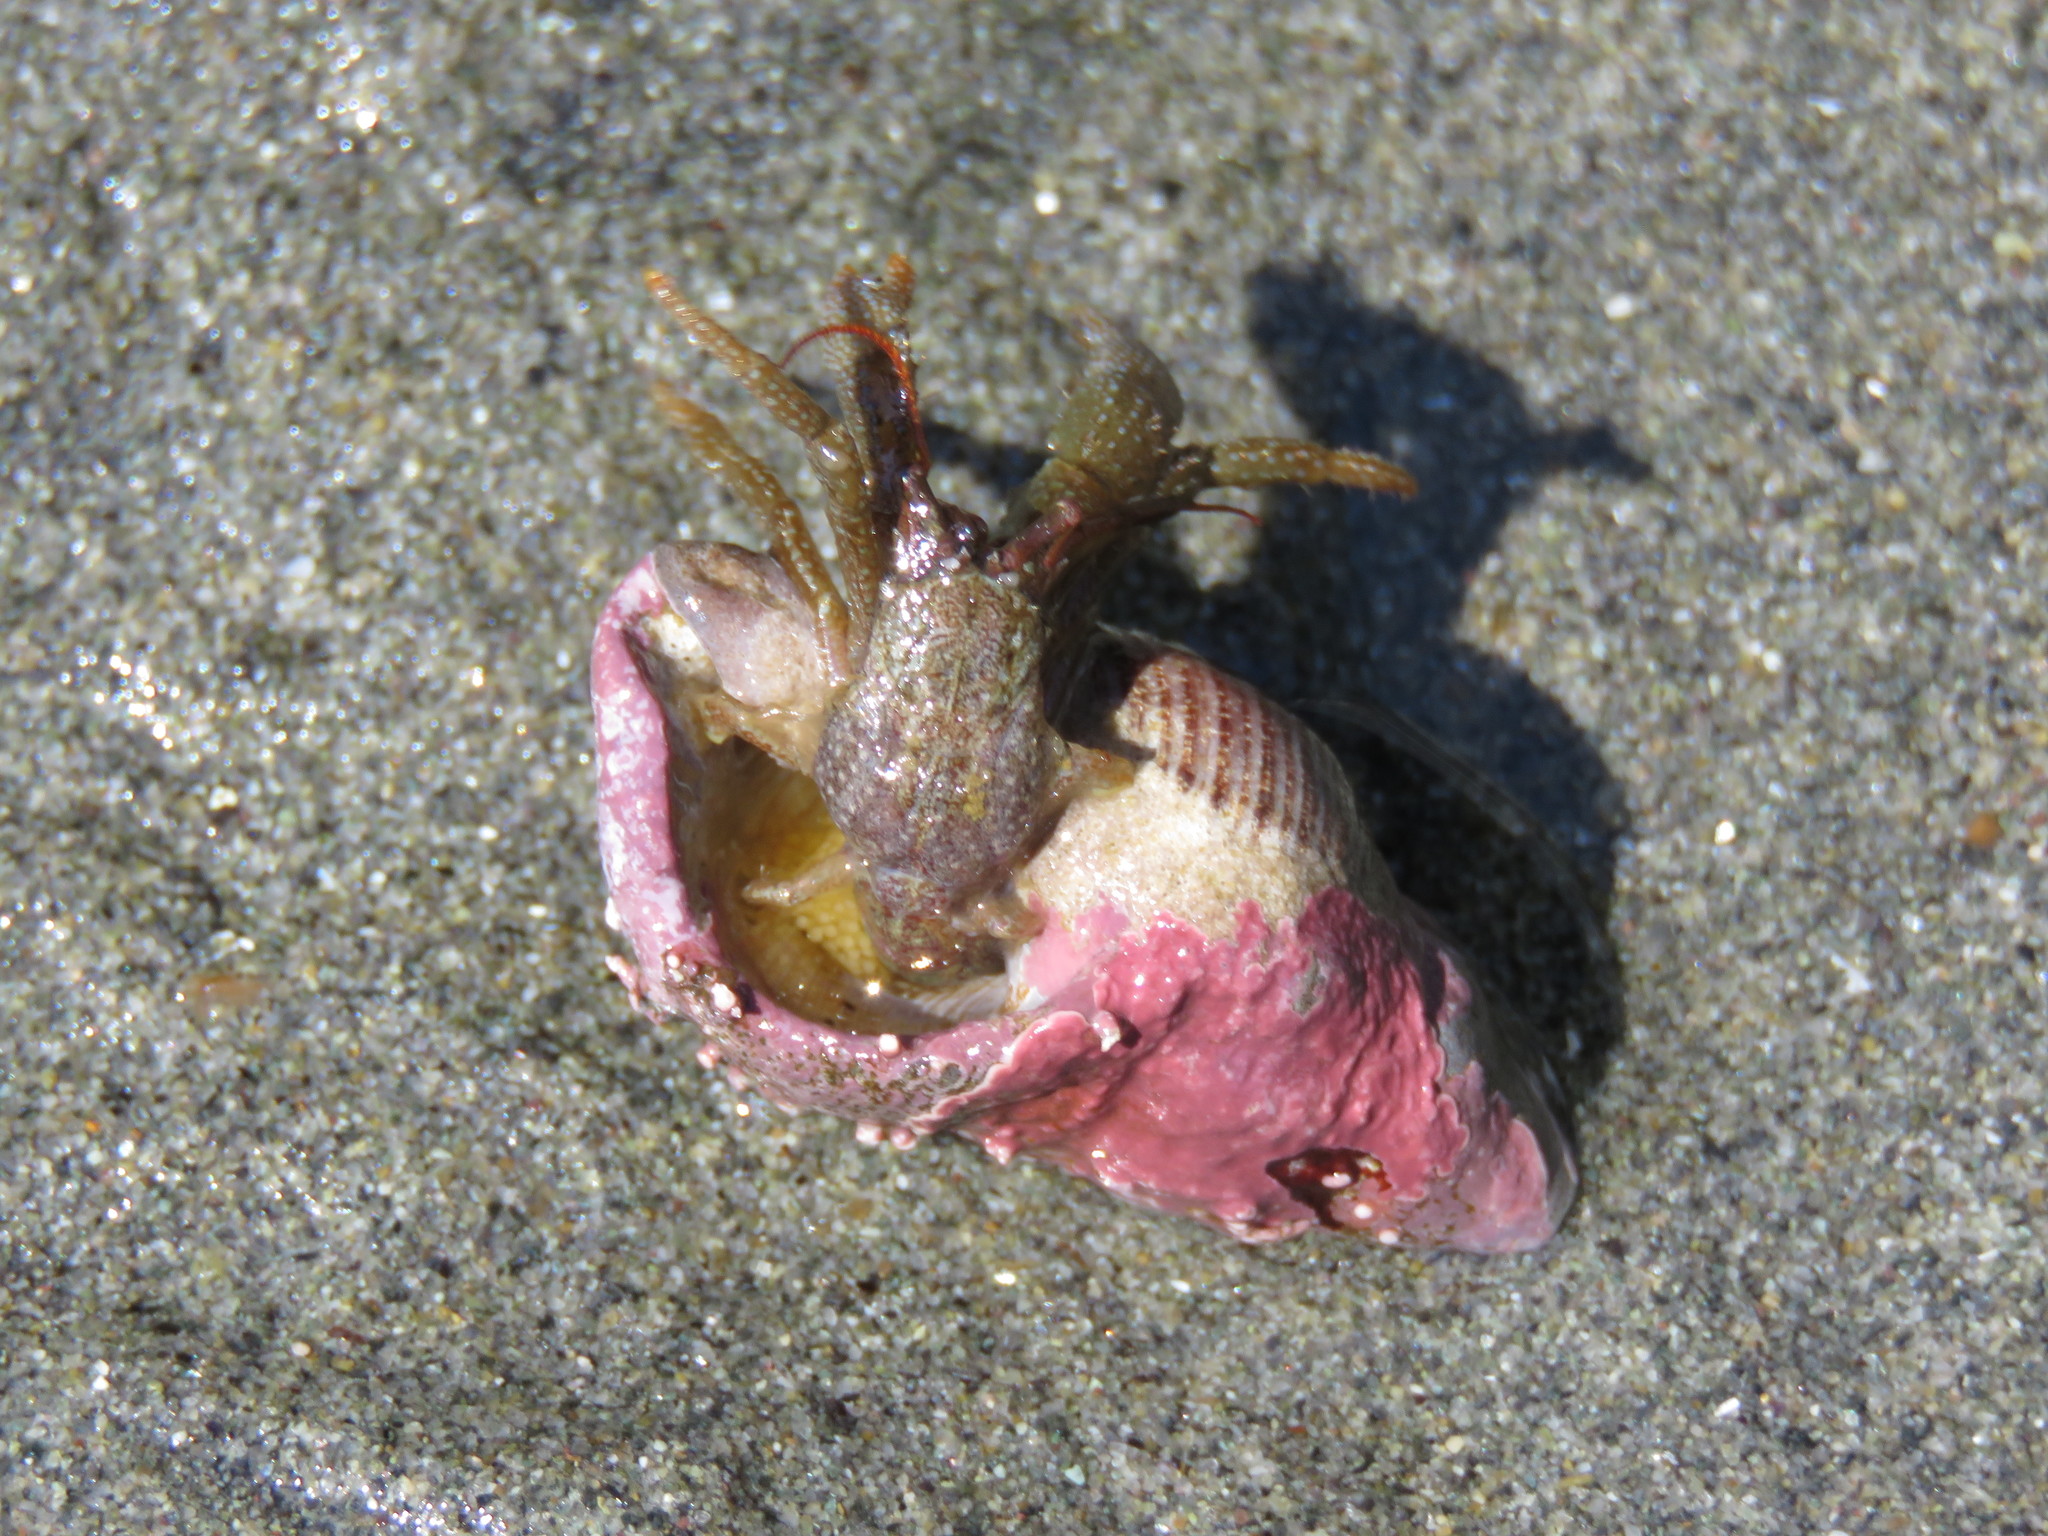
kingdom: Animalia
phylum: Arthropoda
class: Malacostraca
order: Decapoda
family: Paguridae
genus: Pagurus
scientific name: Pagurus granosimanus
